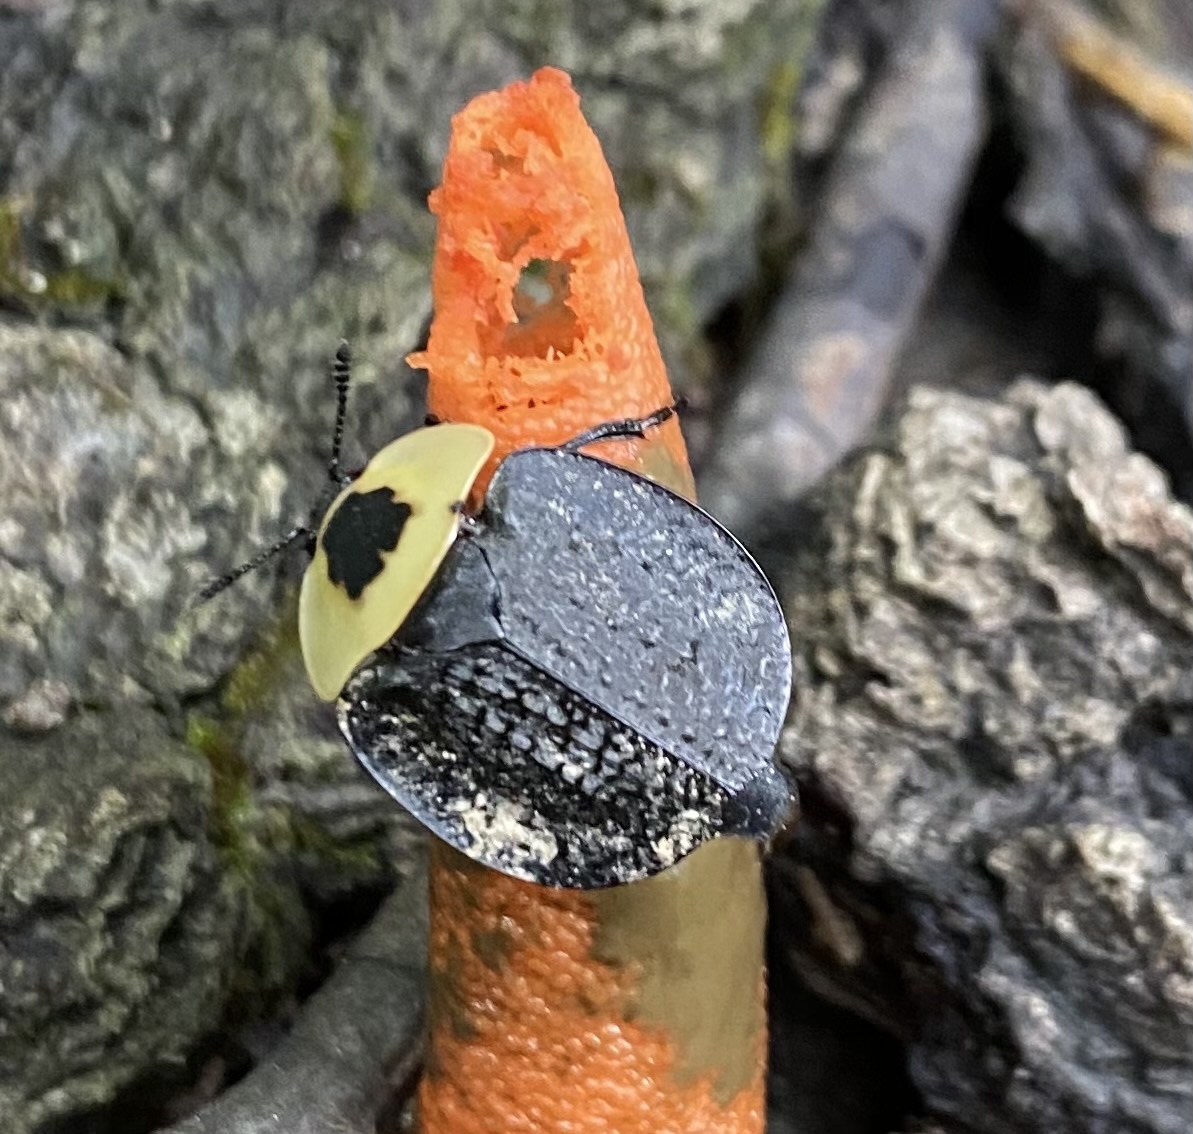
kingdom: Animalia
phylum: Arthropoda
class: Insecta
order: Coleoptera
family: Staphylinidae
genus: Necrophila
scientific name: Necrophila americana
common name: American carrion beetle
